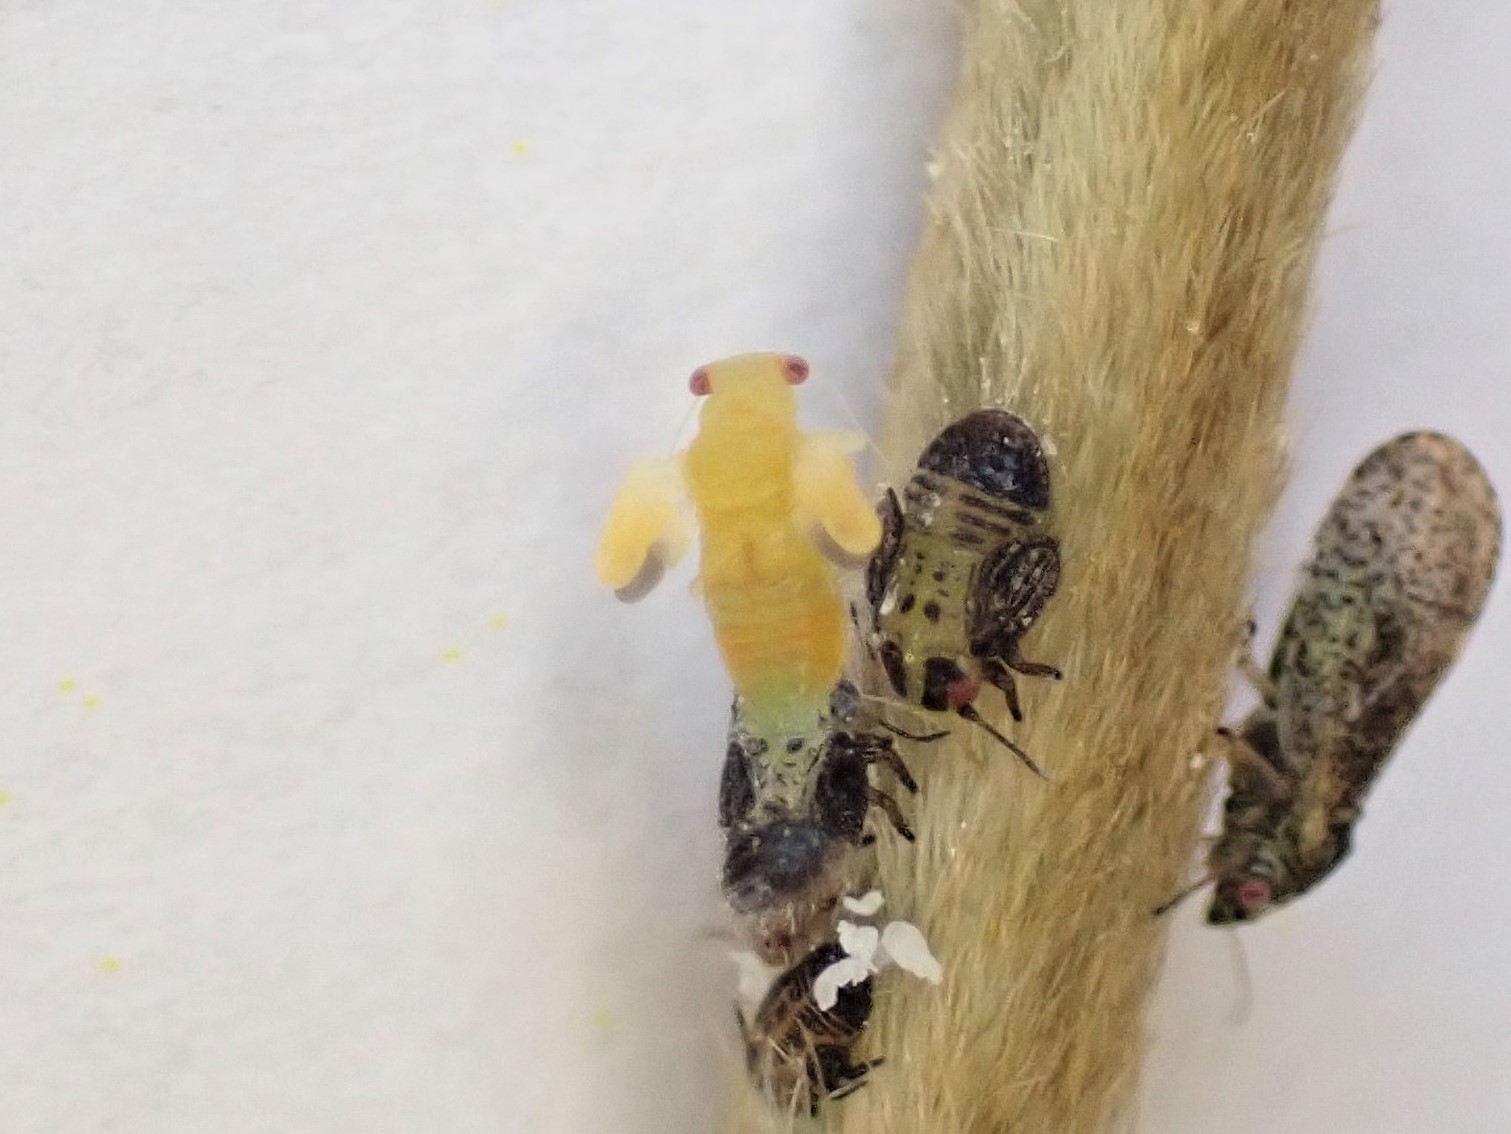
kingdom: Animalia
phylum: Arthropoda
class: Insecta
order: Hemiptera
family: Psyllidae
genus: Psylla
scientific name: Psylla frodobagginsi
